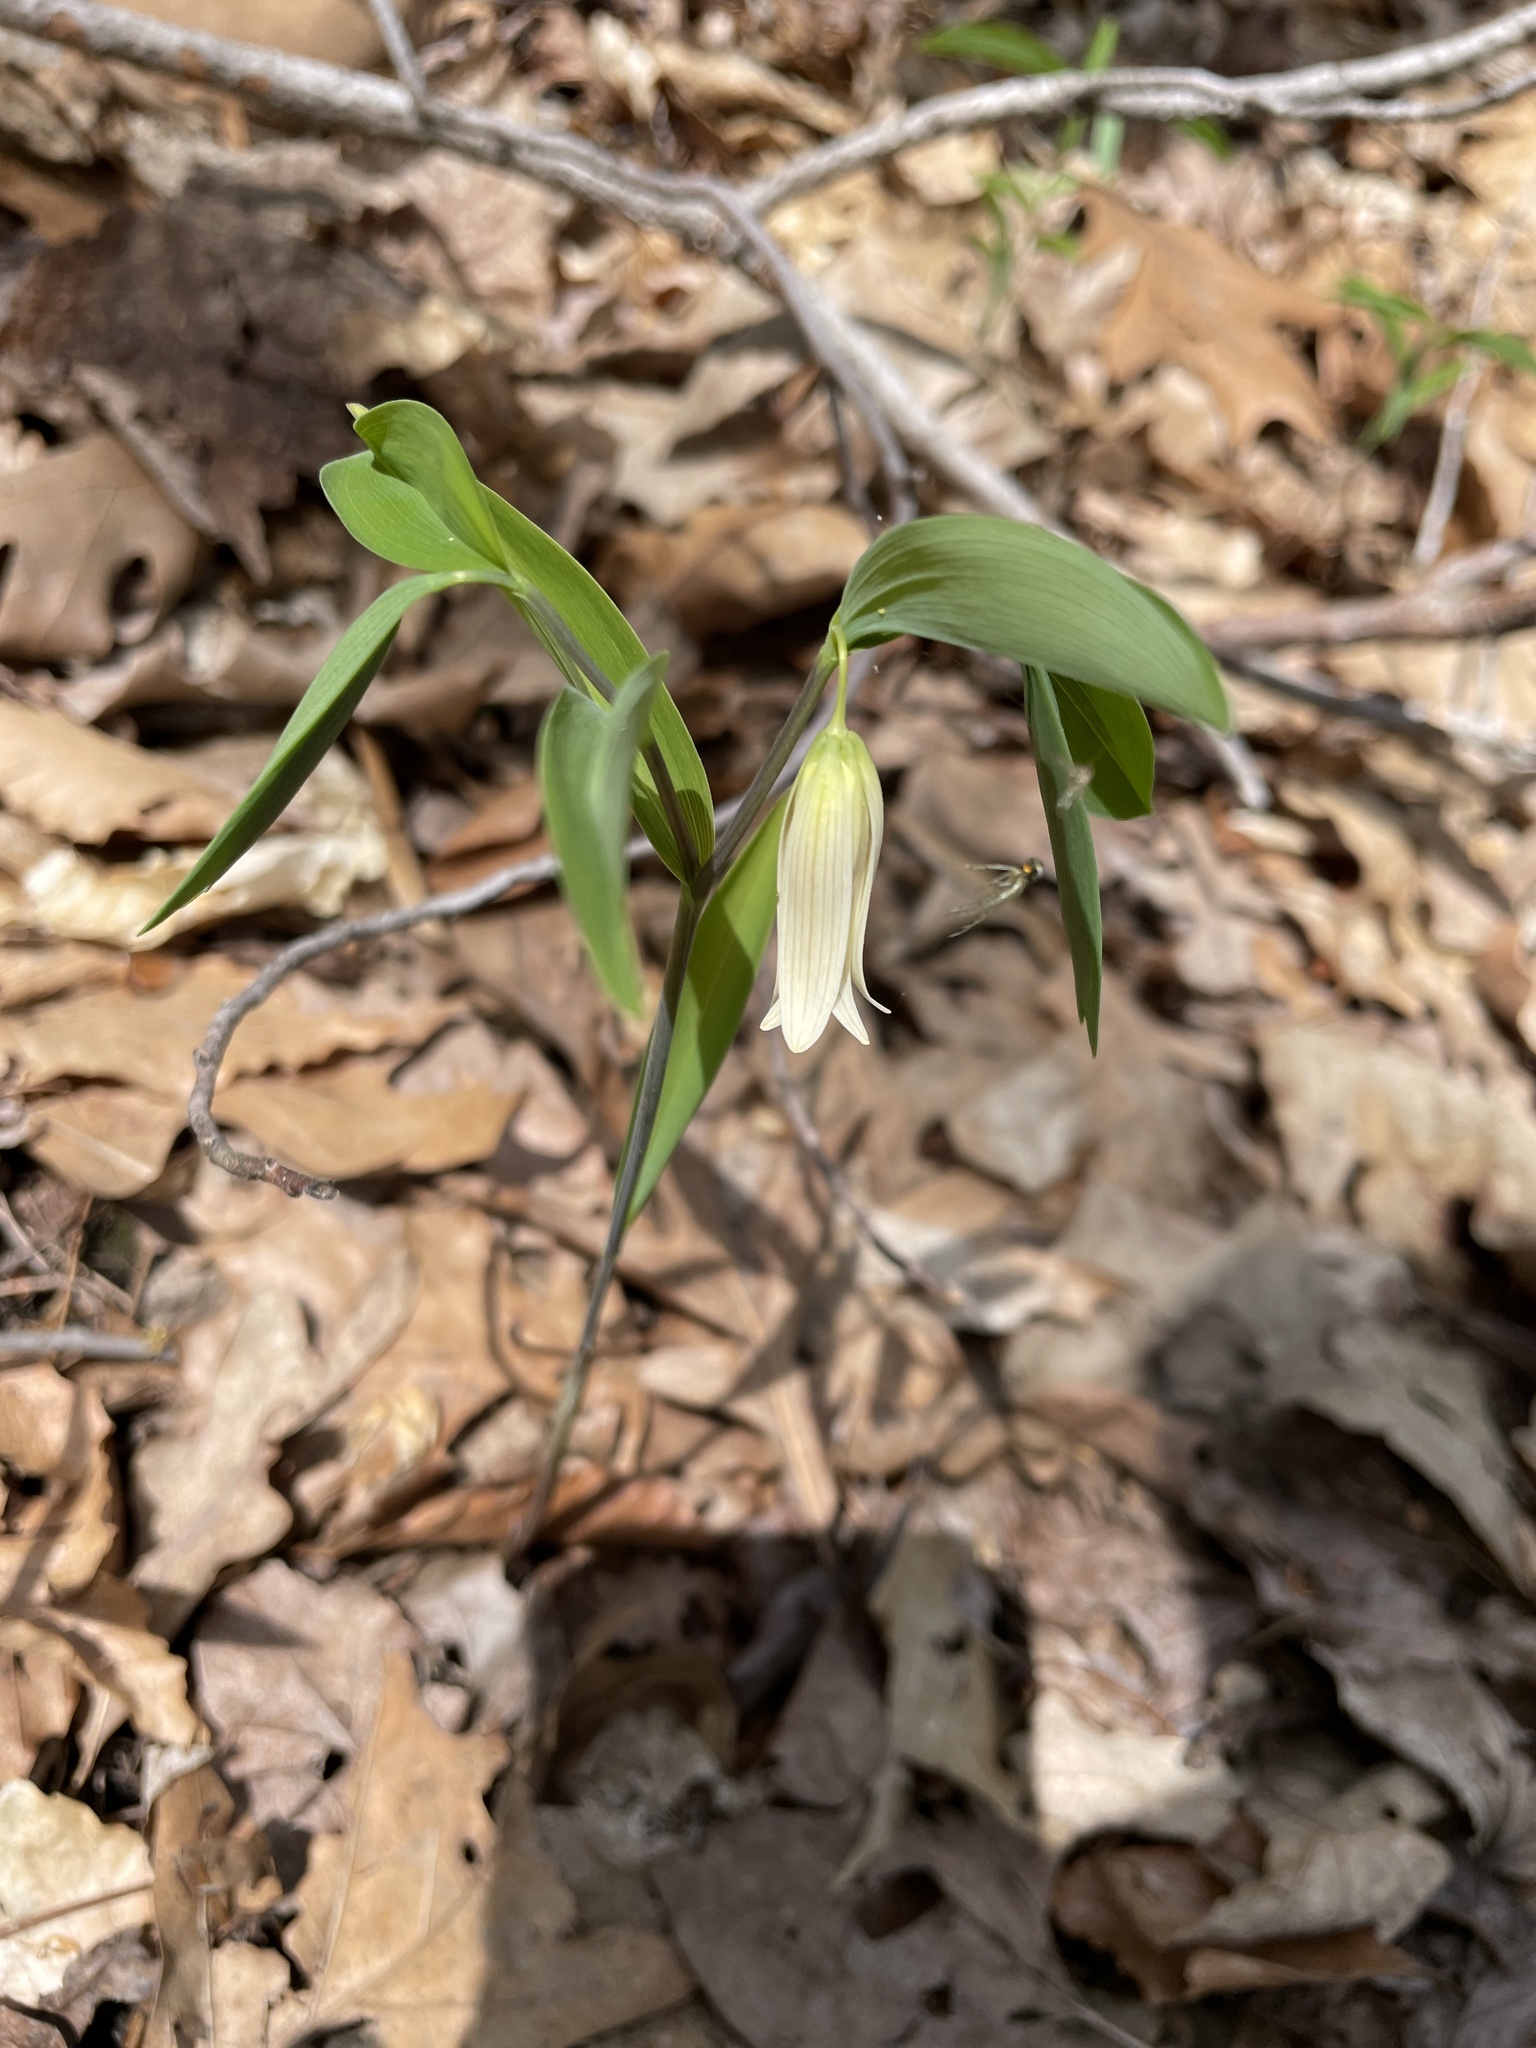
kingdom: Plantae
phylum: Tracheophyta
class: Liliopsida
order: Liliales
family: Colchicaceae
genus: Uvularia
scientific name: Uvularia sessilifolia
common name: Straw-lily
